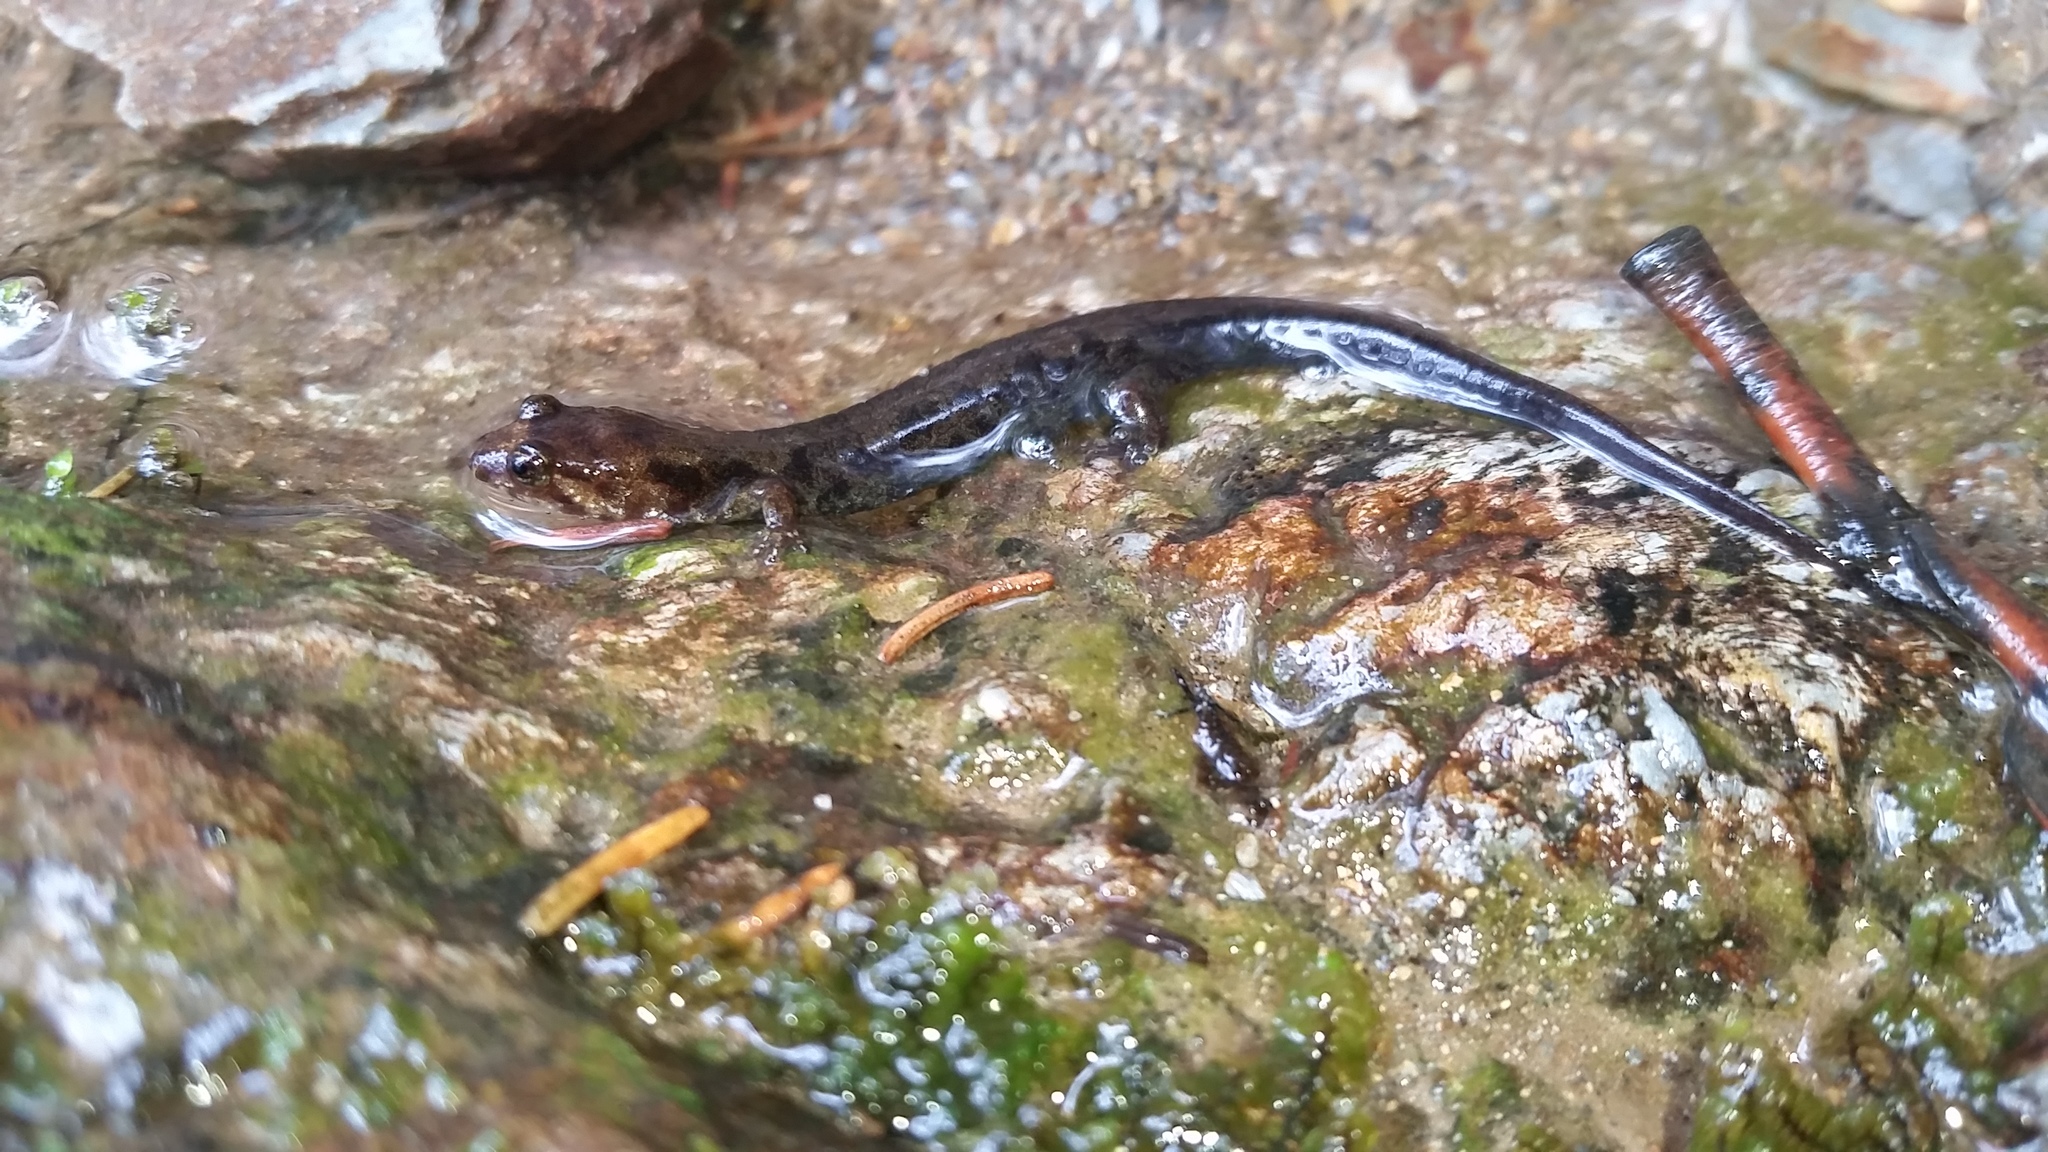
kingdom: Animalia
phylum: Chordata
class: Amphibia
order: Caudata
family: Plethodontidae
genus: Desmognathus
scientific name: Desmognathus adatsihi
